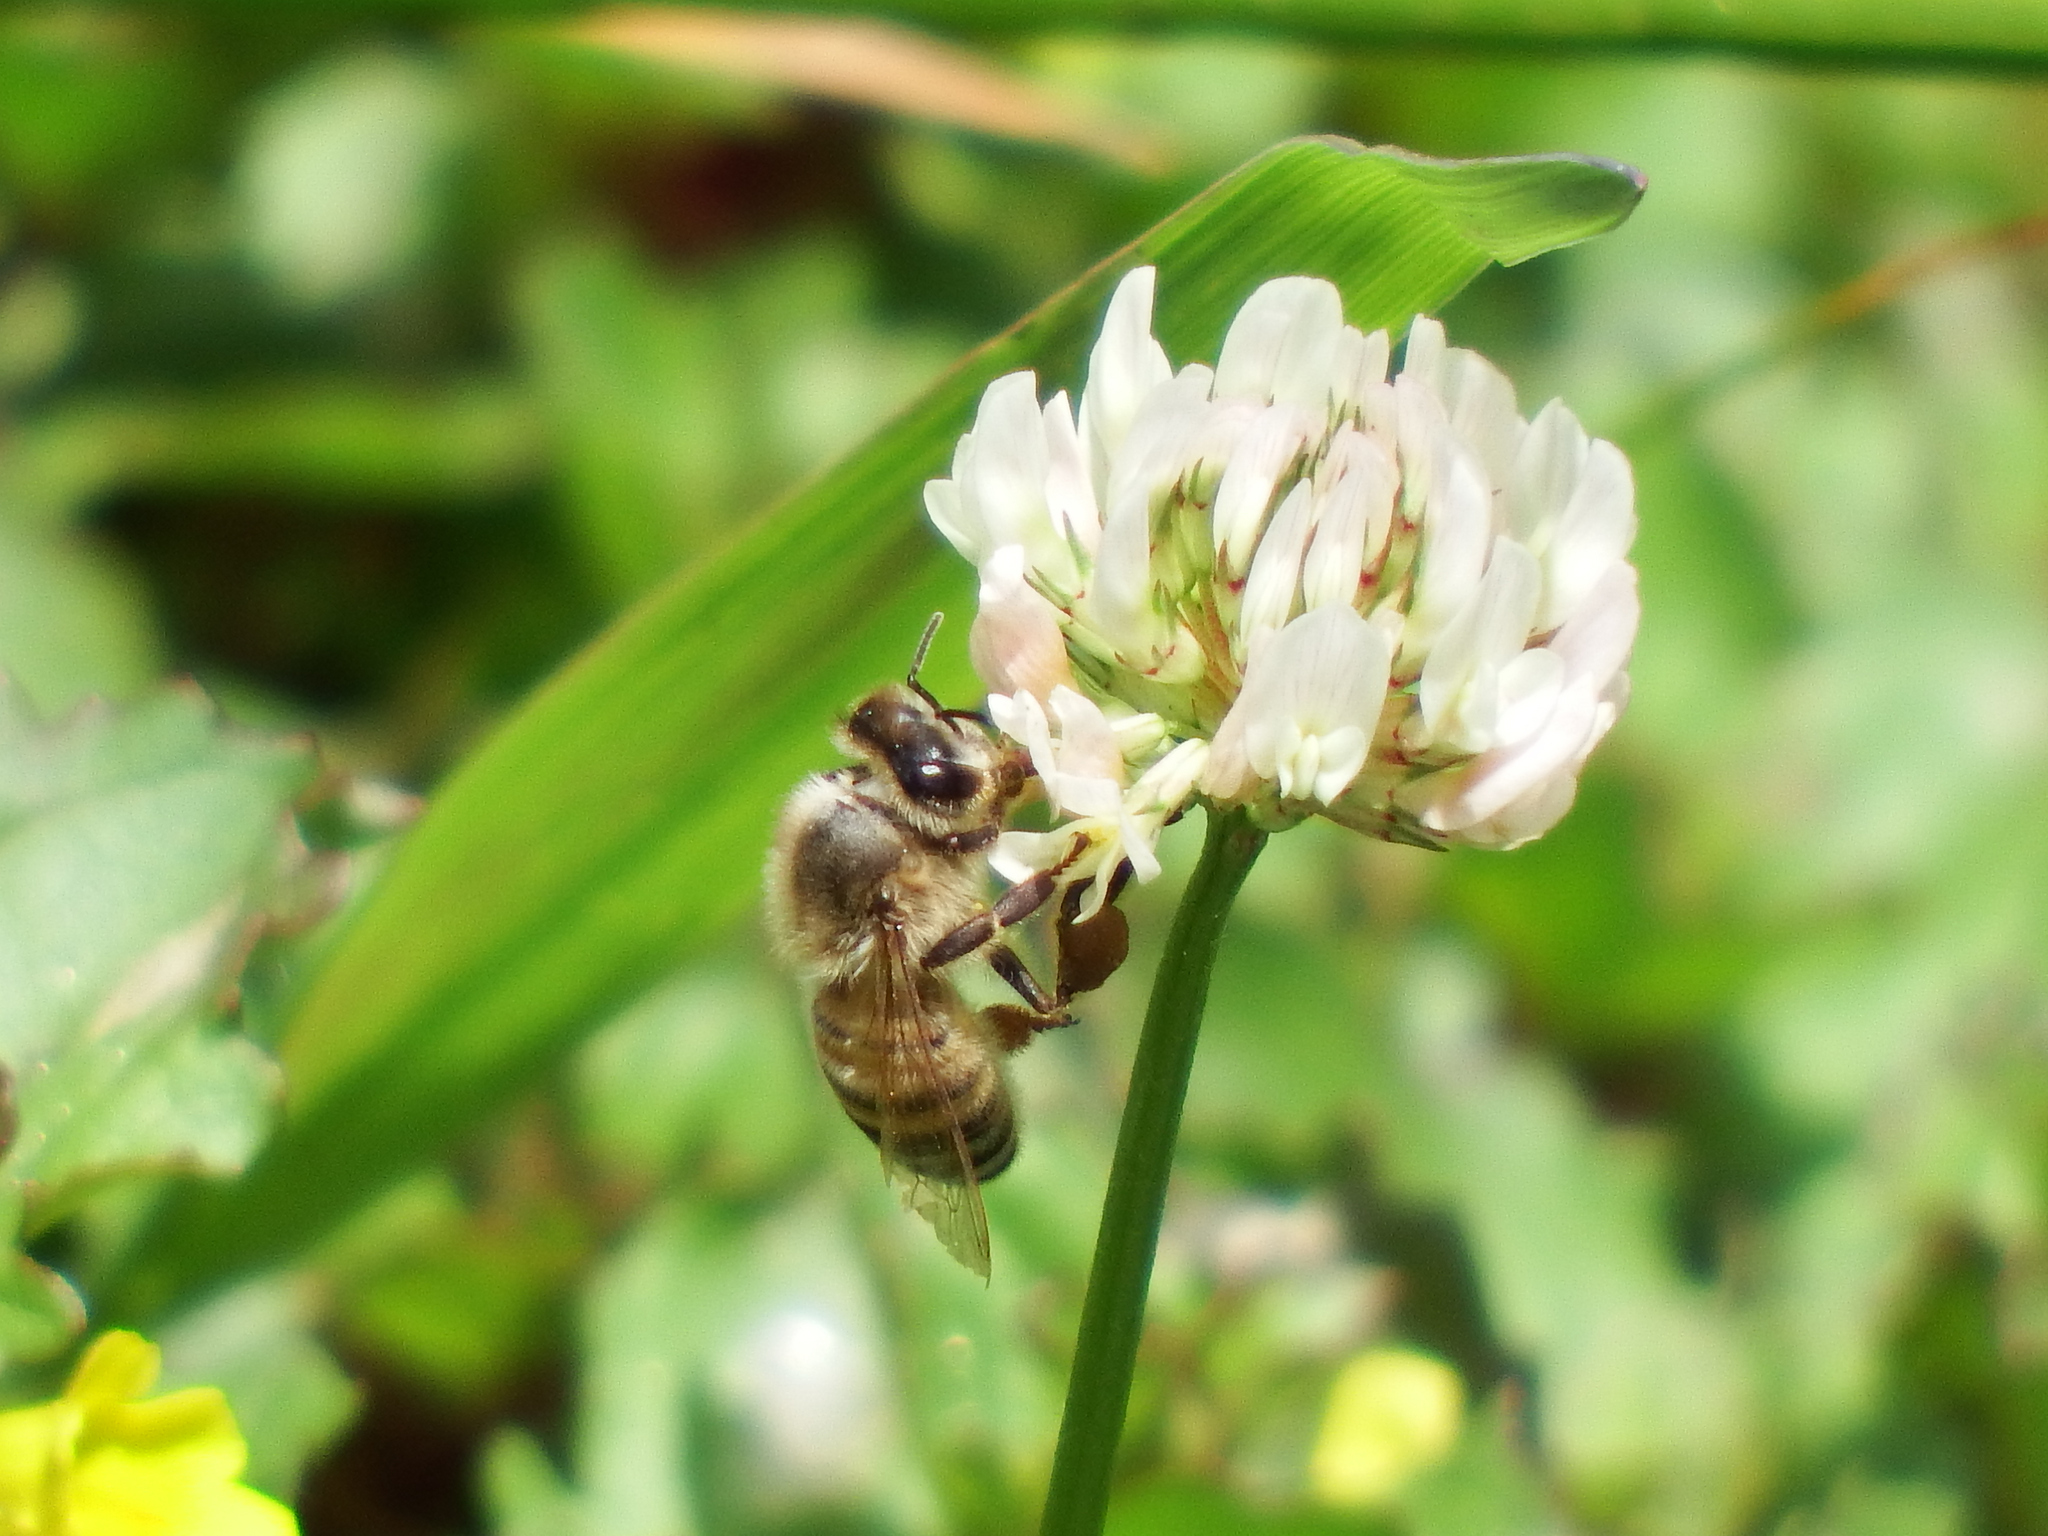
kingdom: Animalia
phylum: Arthropoda
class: Insecta
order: Hymenoptera
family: Apidae
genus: Apis
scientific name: Apis mellifera
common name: Honey bee
